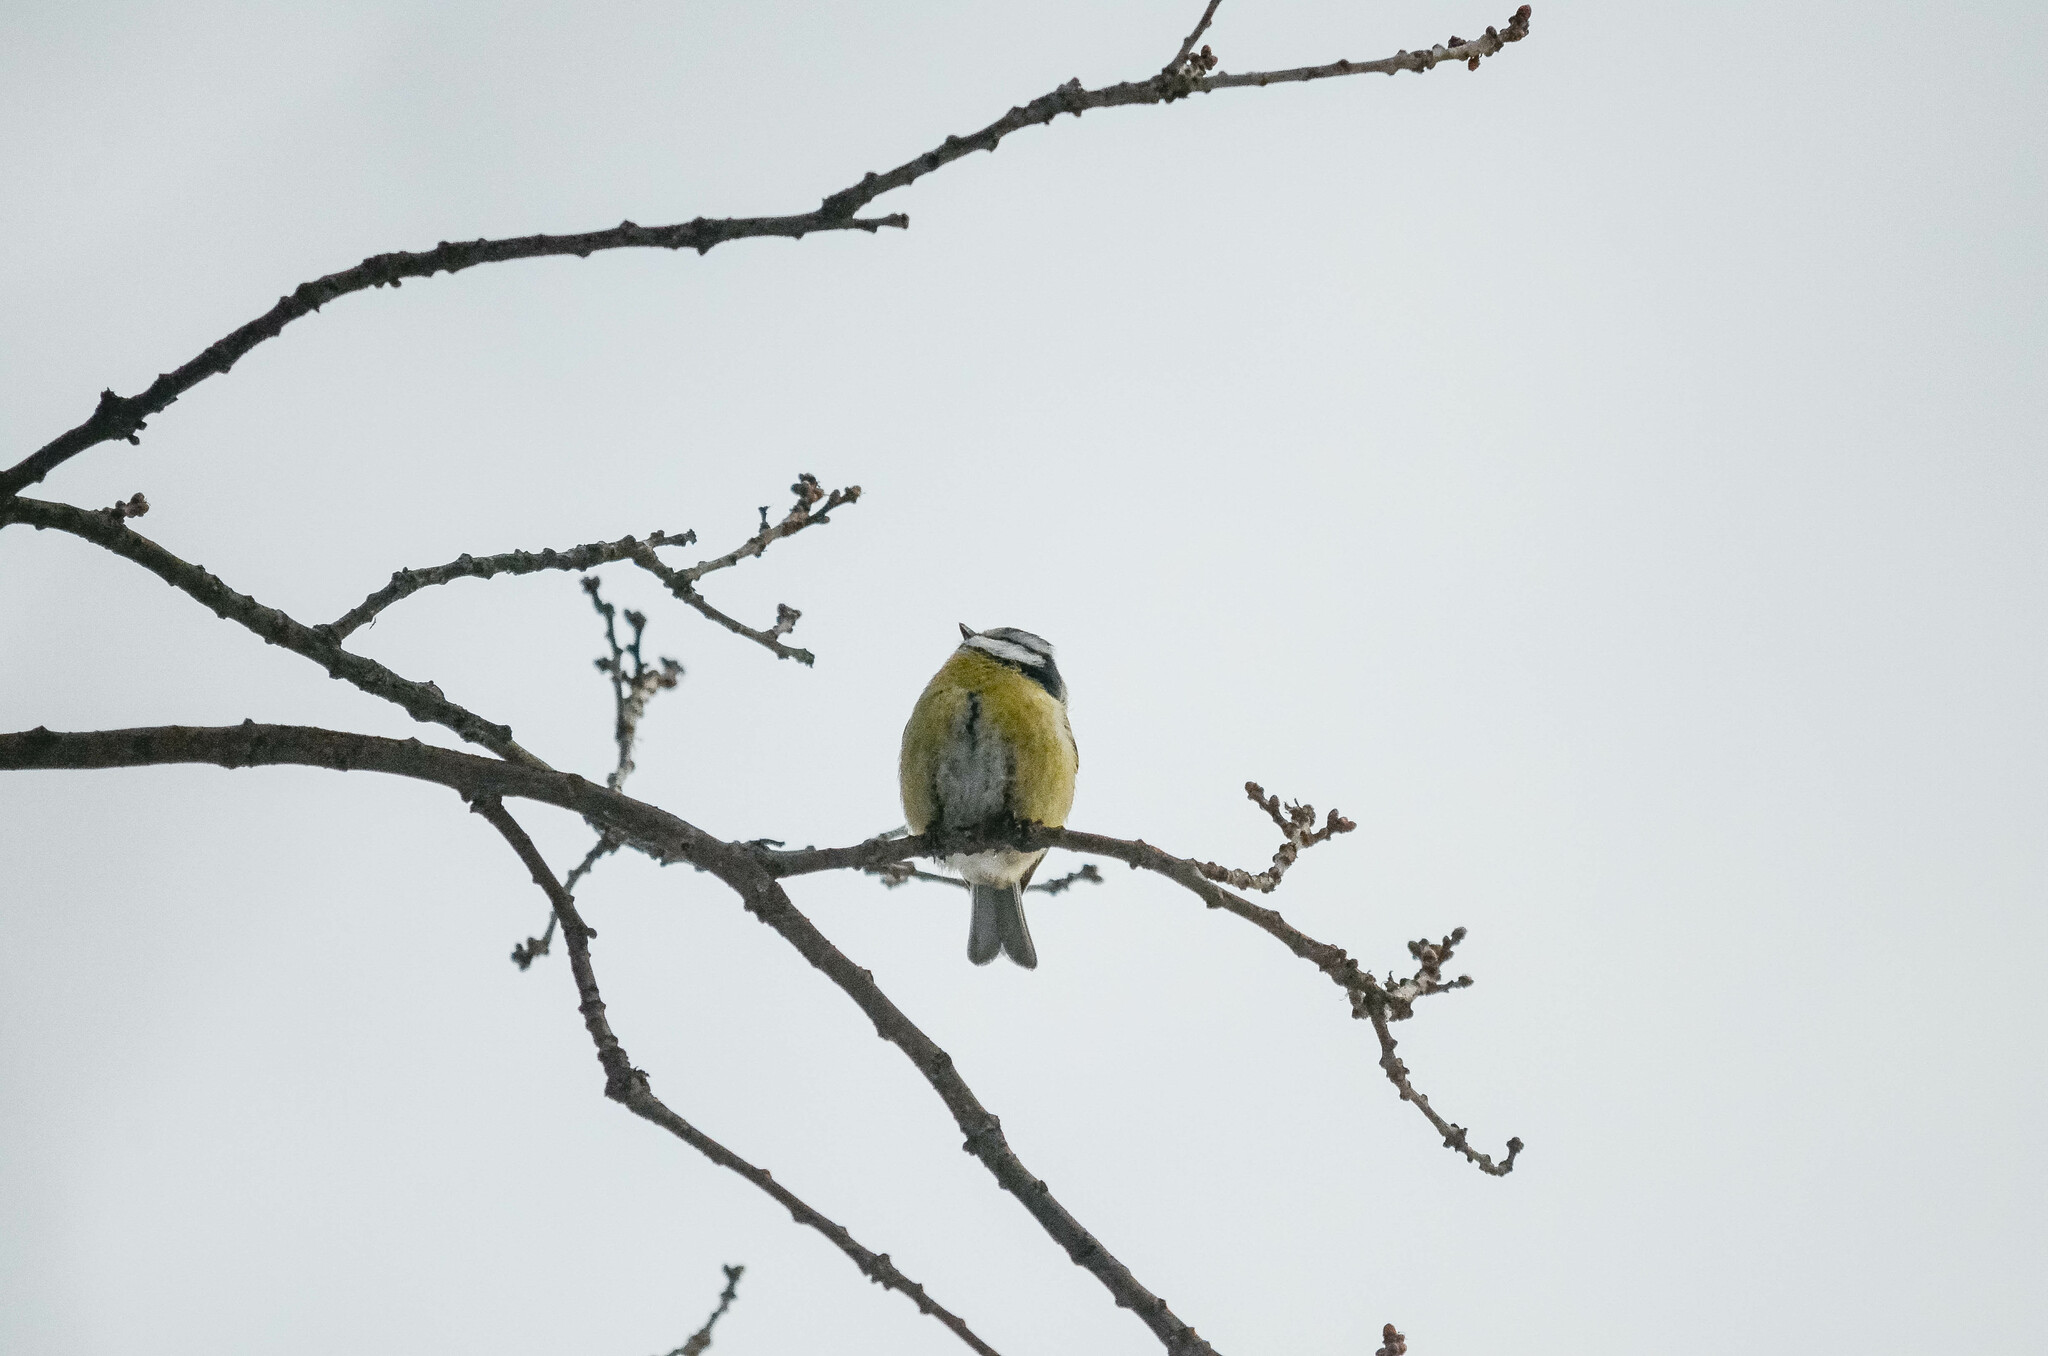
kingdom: Animalia
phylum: Chordata
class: Aves
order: Passeriformes
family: Paridae
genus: Cyanistes
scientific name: Cyanistes caeruleus
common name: Eurasian blue tit
